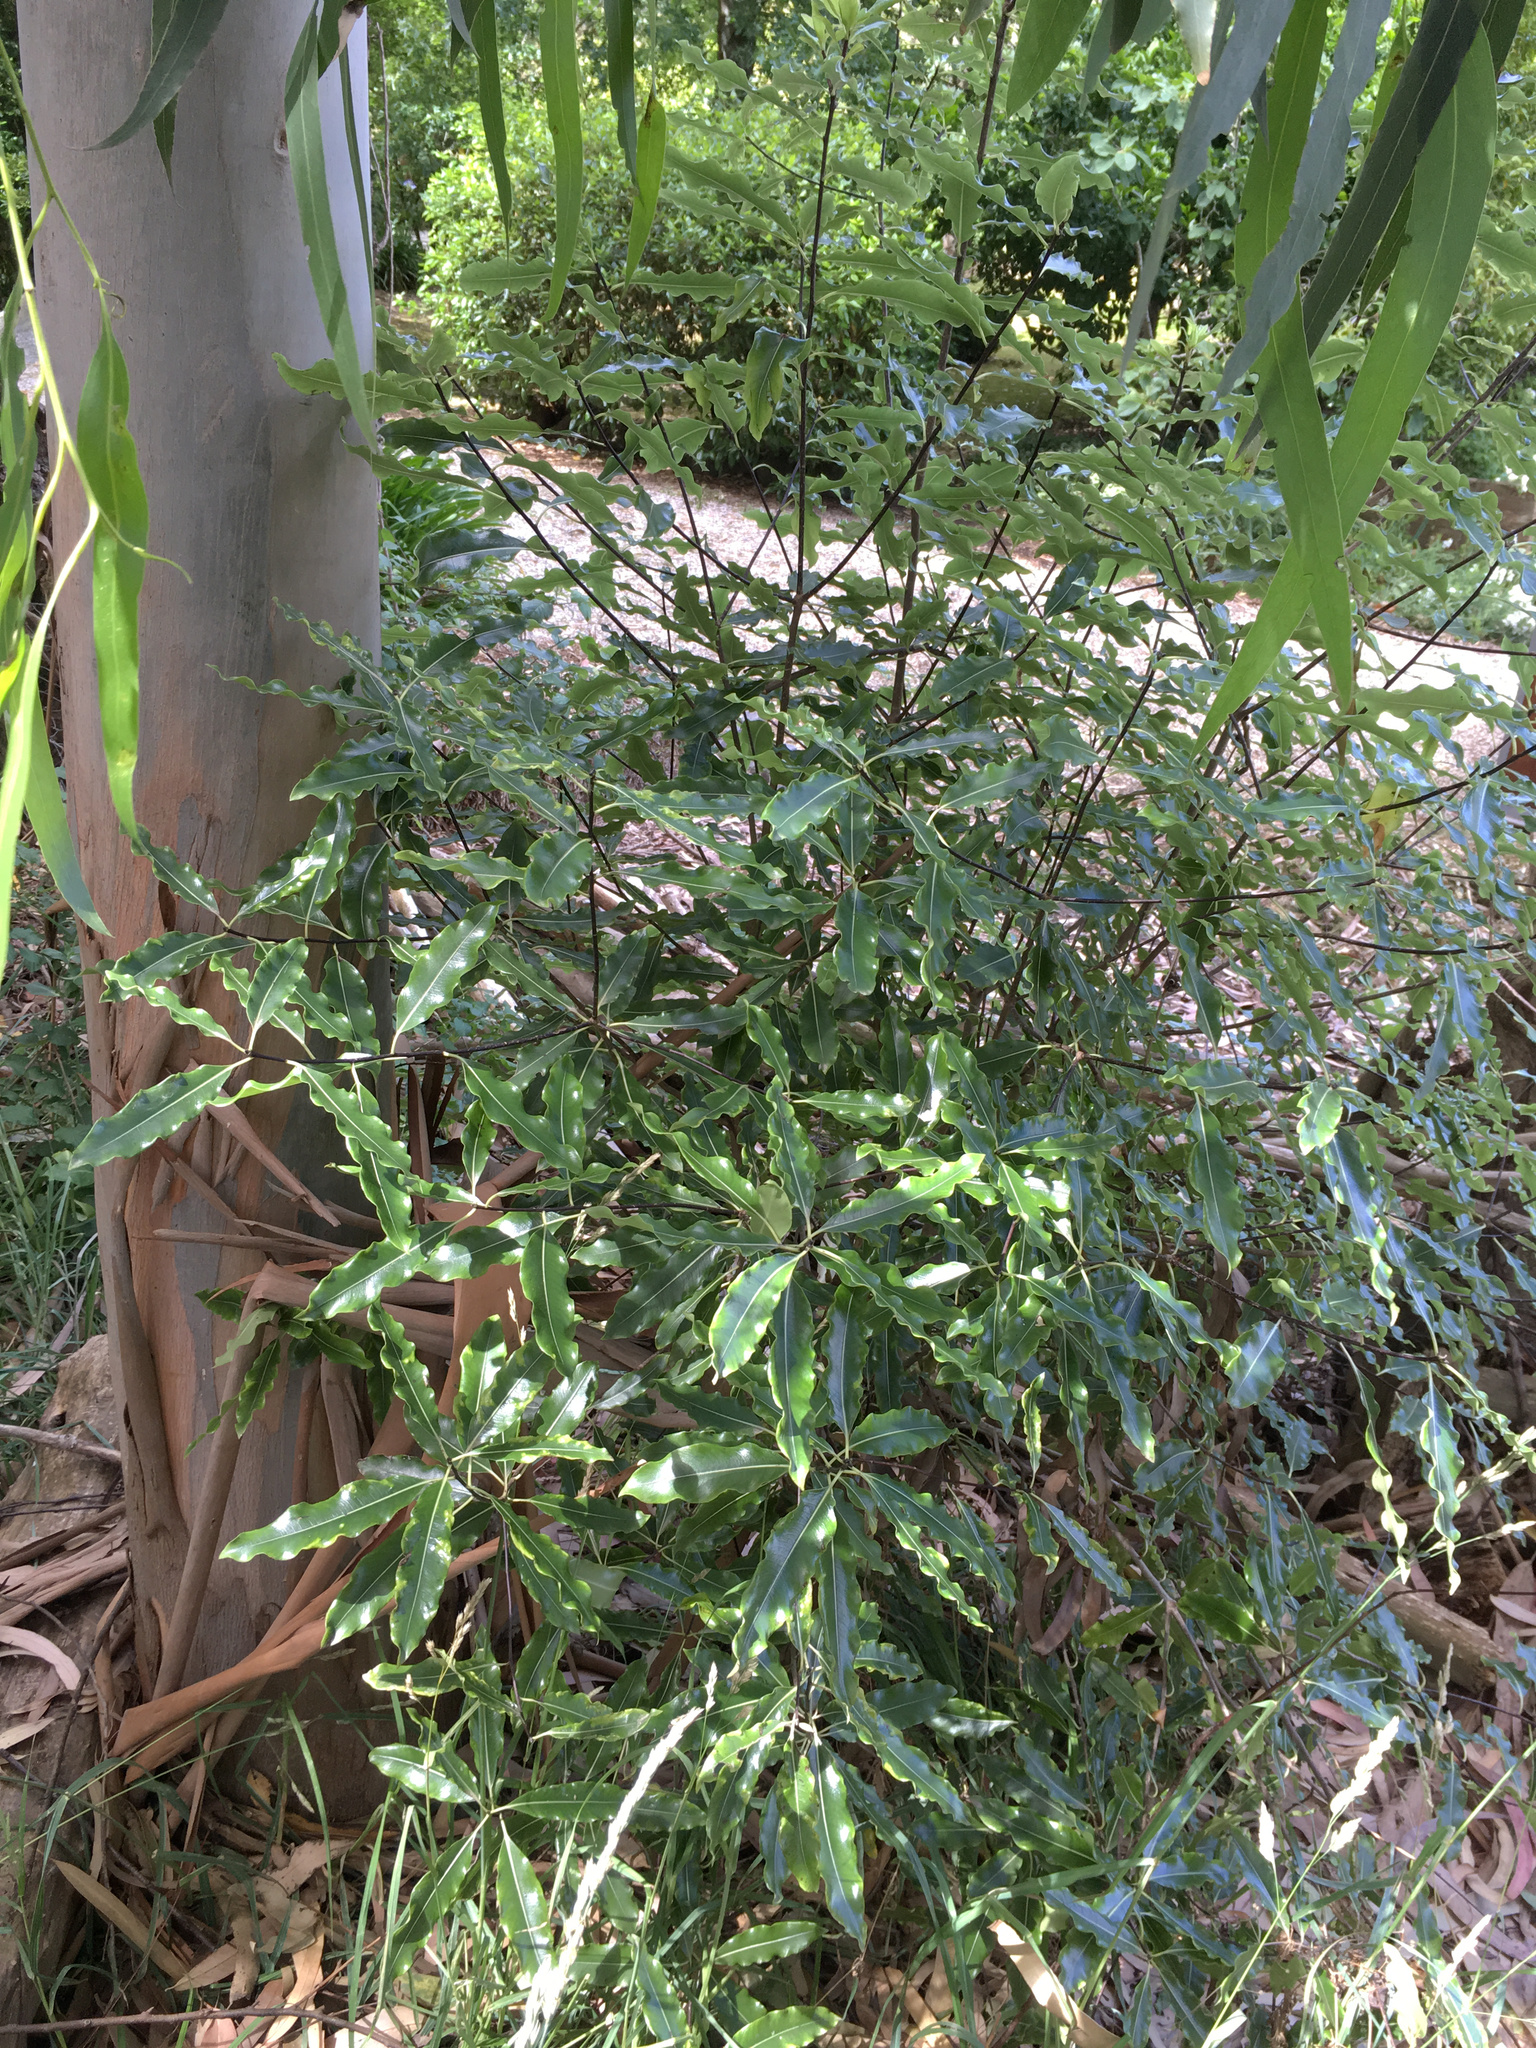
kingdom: Plantae
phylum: Tracheophyta
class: Magnoliopsida
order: Apiales
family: Pittosporaceae
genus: Pittosporum
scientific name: Pittosporum eugenioides
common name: Lemonwood
